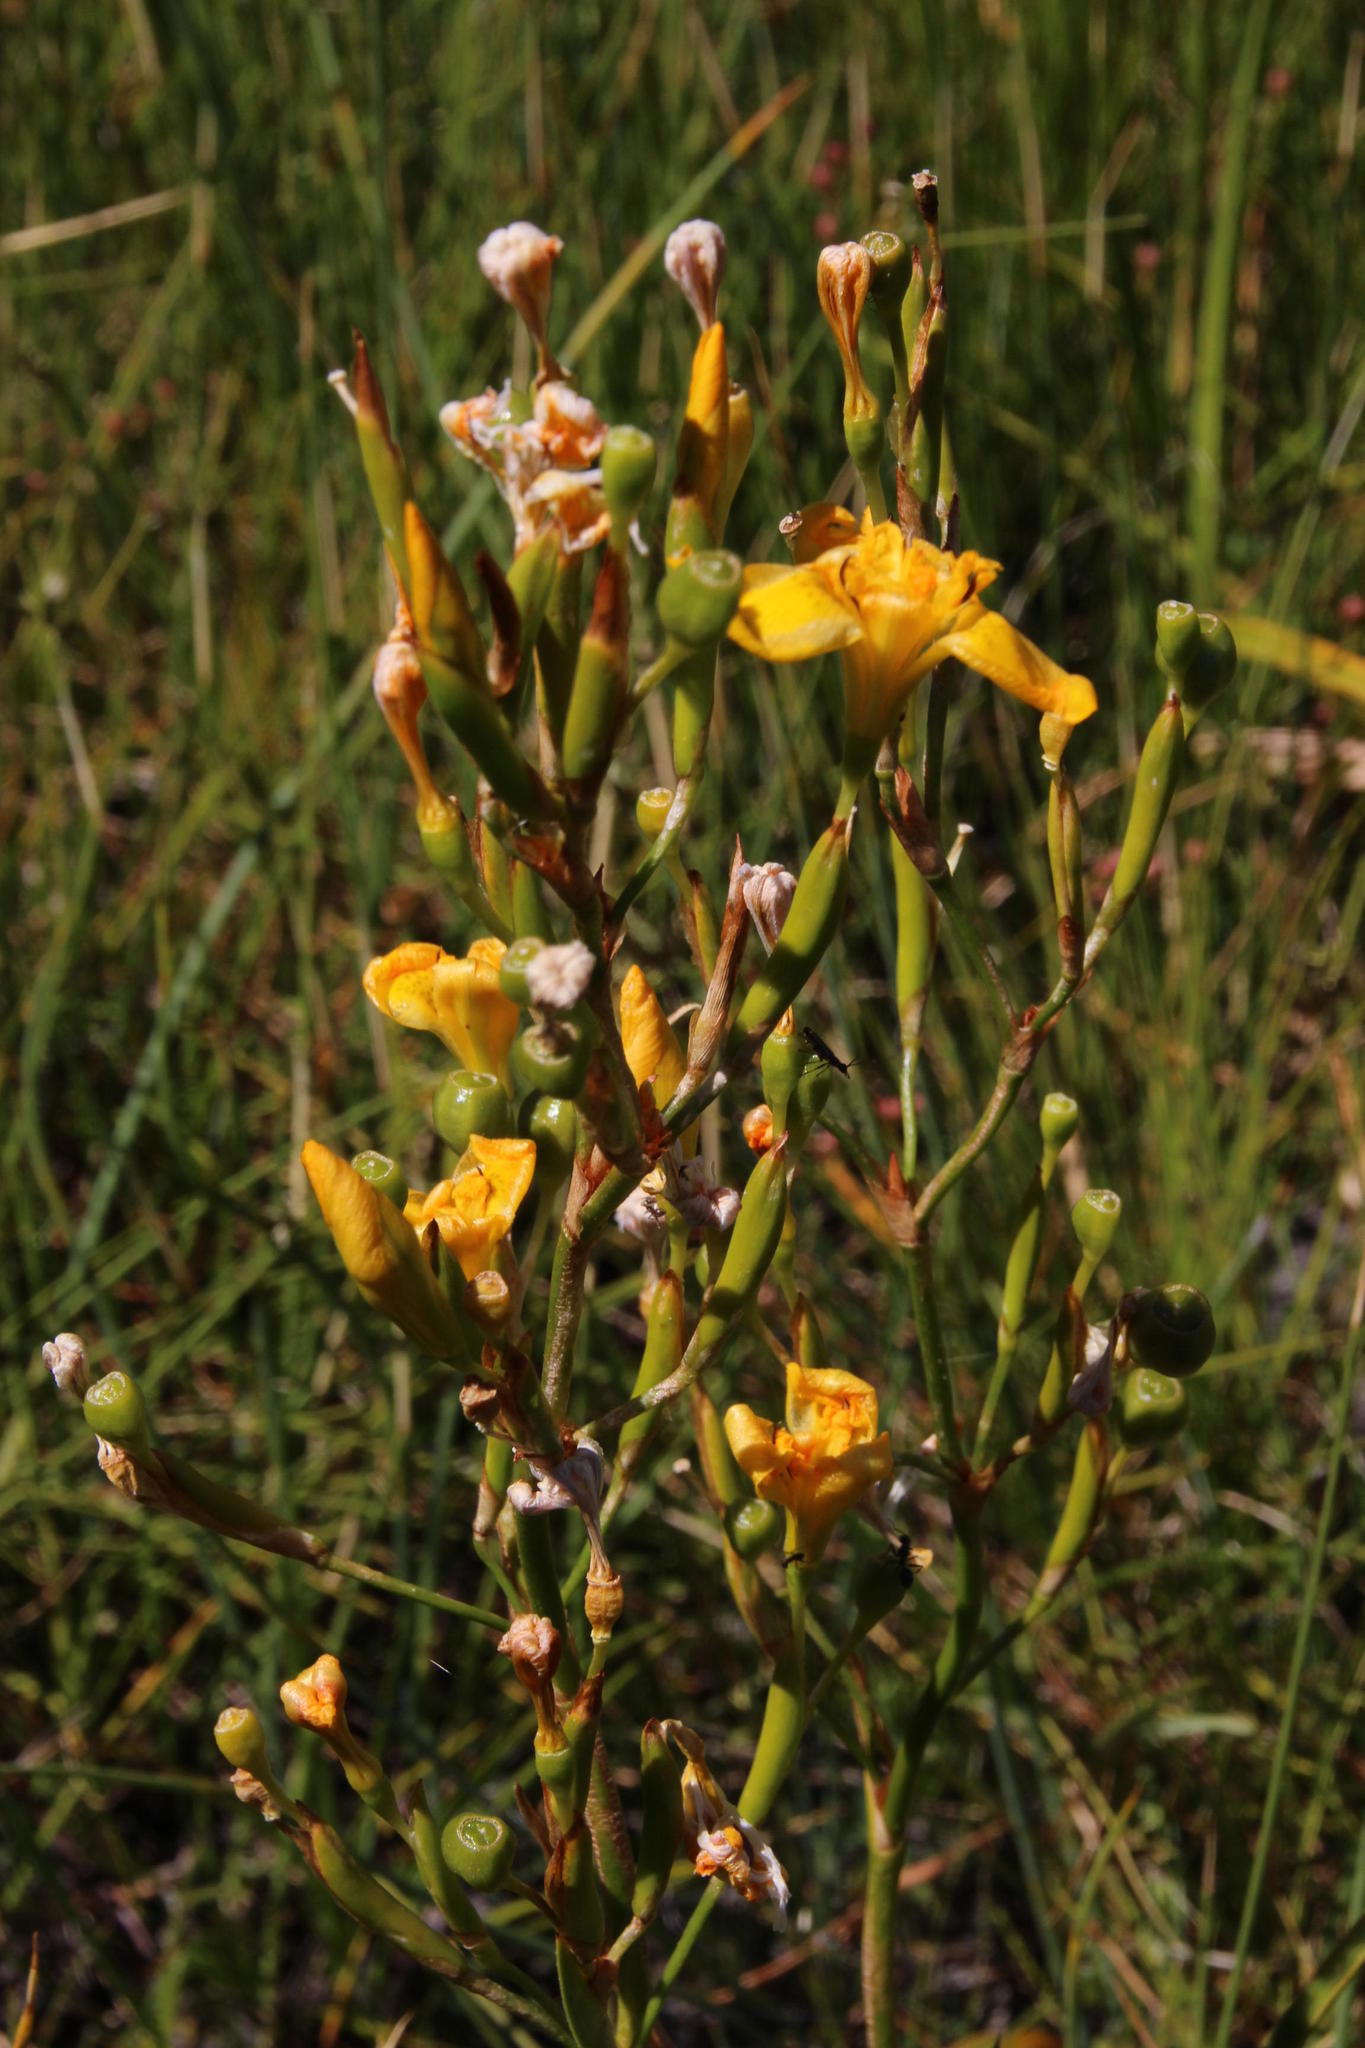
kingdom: Plantae
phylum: Tracheophyta
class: Liliopsida
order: Asparagales
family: Iridaceae
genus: Moraea
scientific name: Moraea ramosissima
